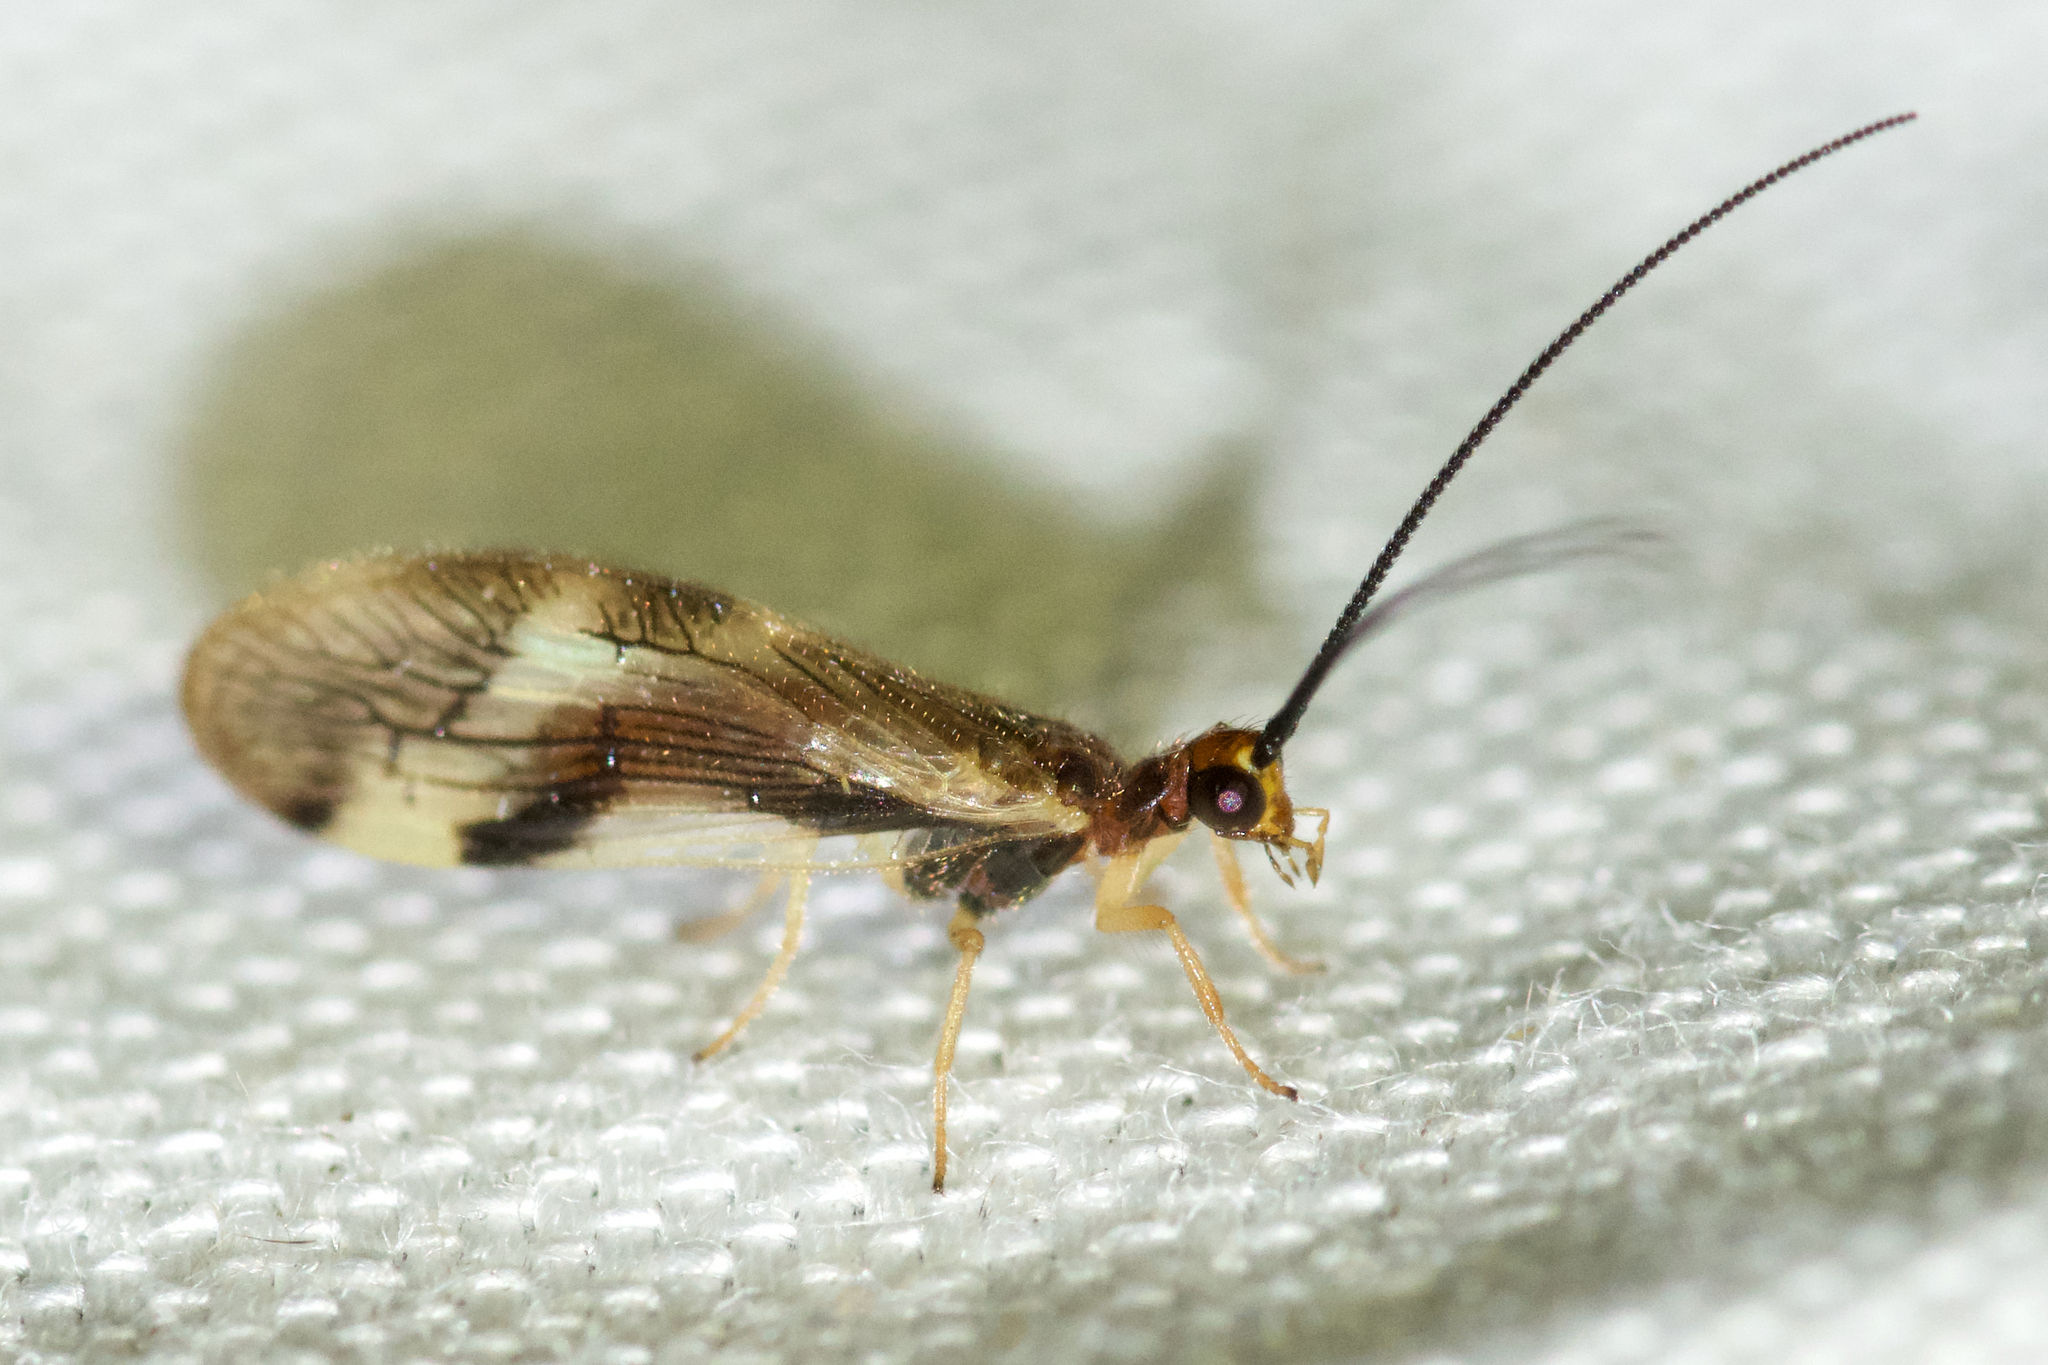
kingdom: Animalia
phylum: Arthropoda
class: Insecta
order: Neuroptera
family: Sisyridae
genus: Climacia
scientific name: Climacia areolaris
